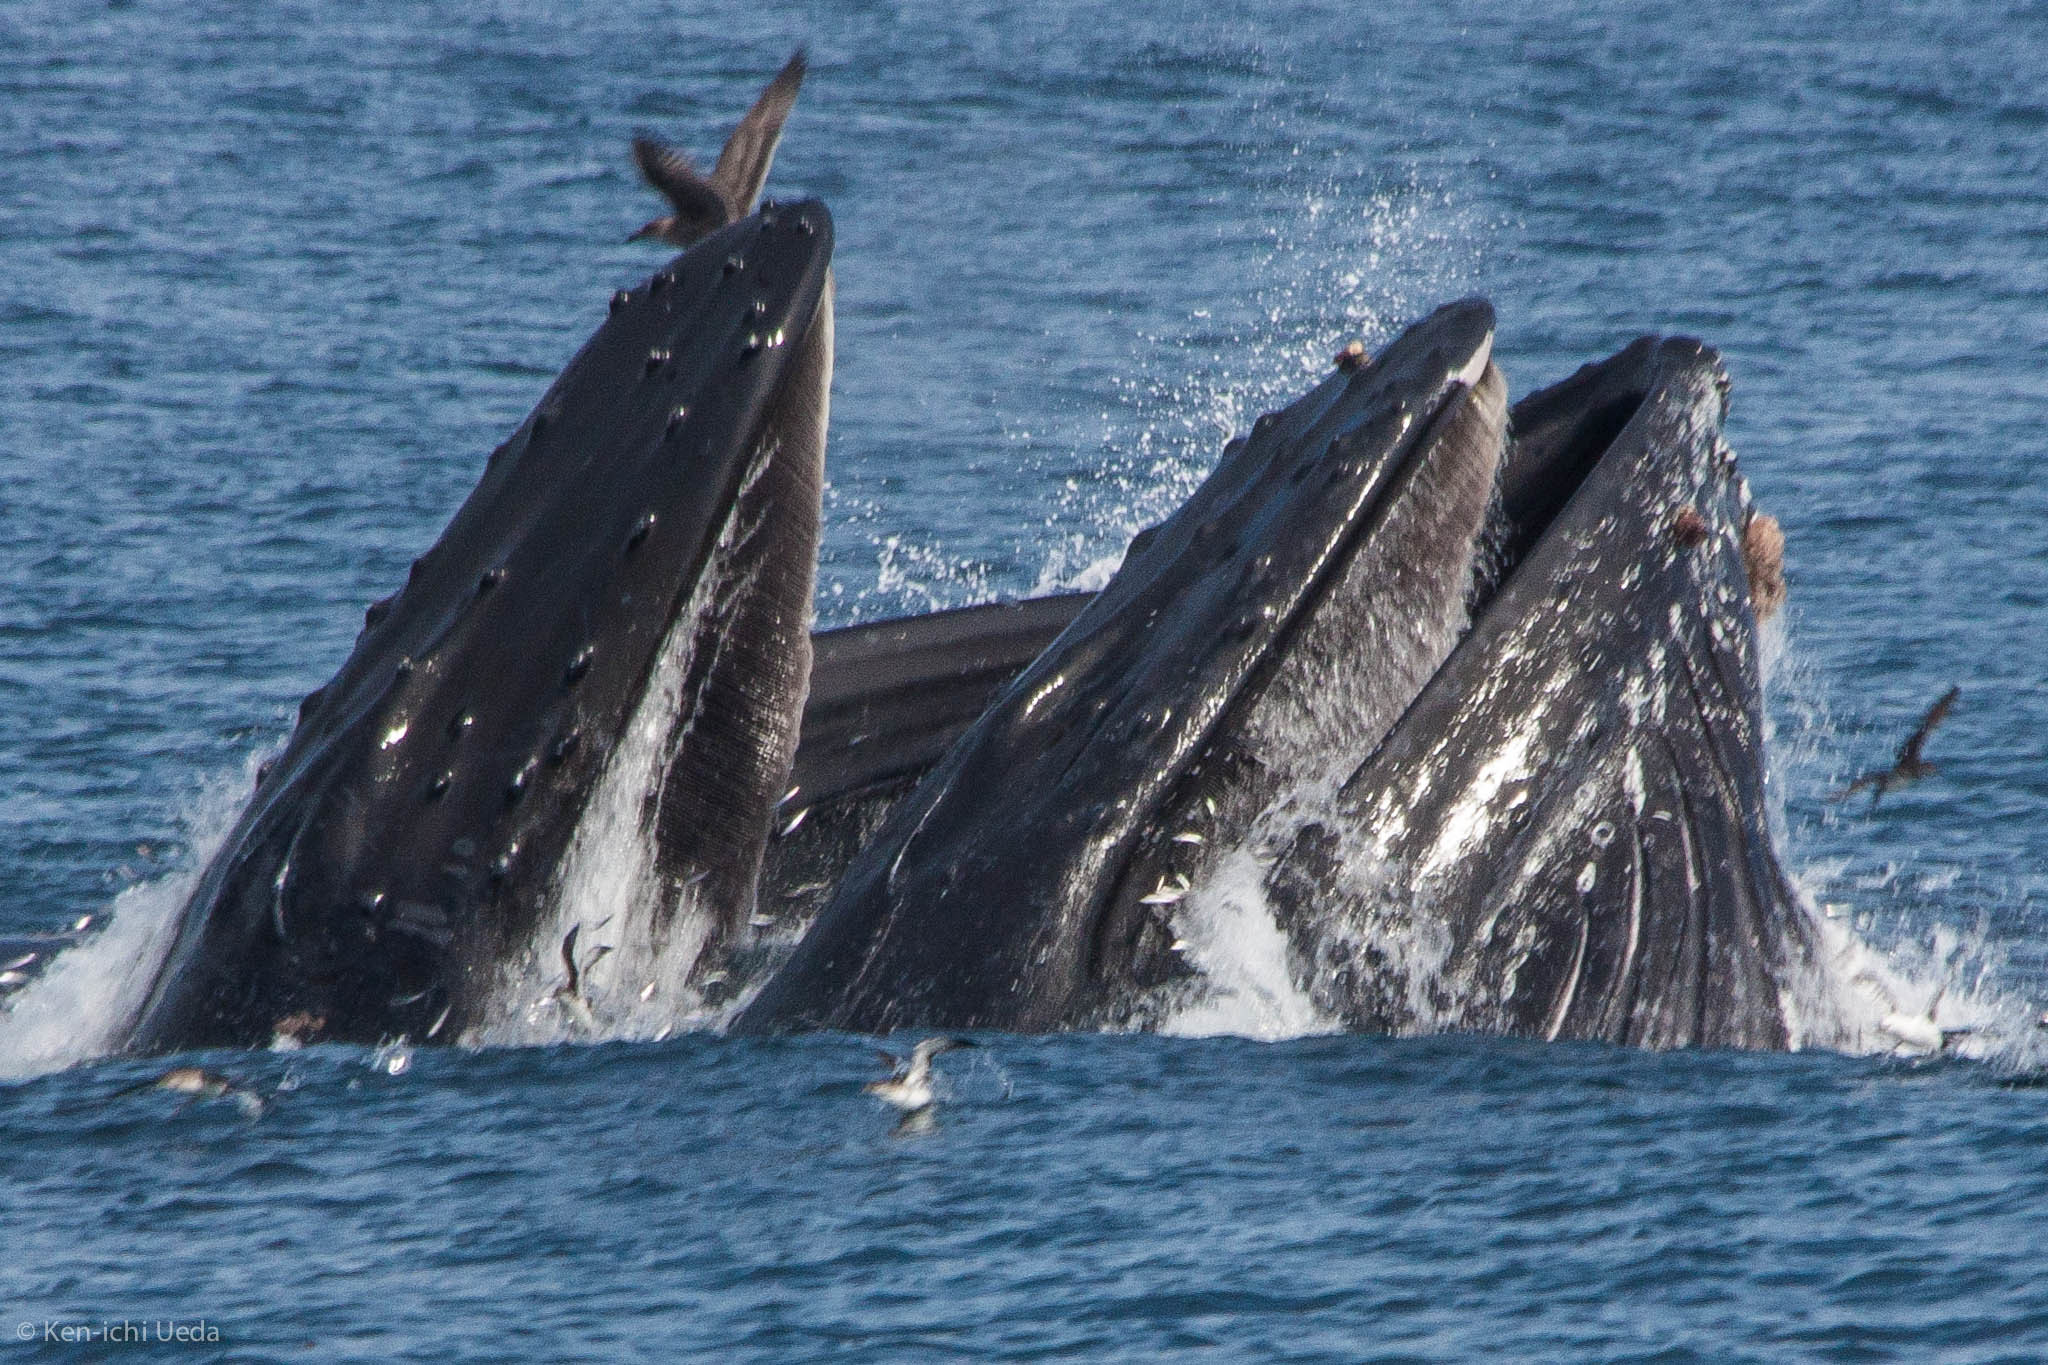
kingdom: Animalia
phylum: Chordata
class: Mammalia
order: Cetacea
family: Balaenopteridae
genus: Megaptera
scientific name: Megaptera novaeangliae
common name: Humpback whale
